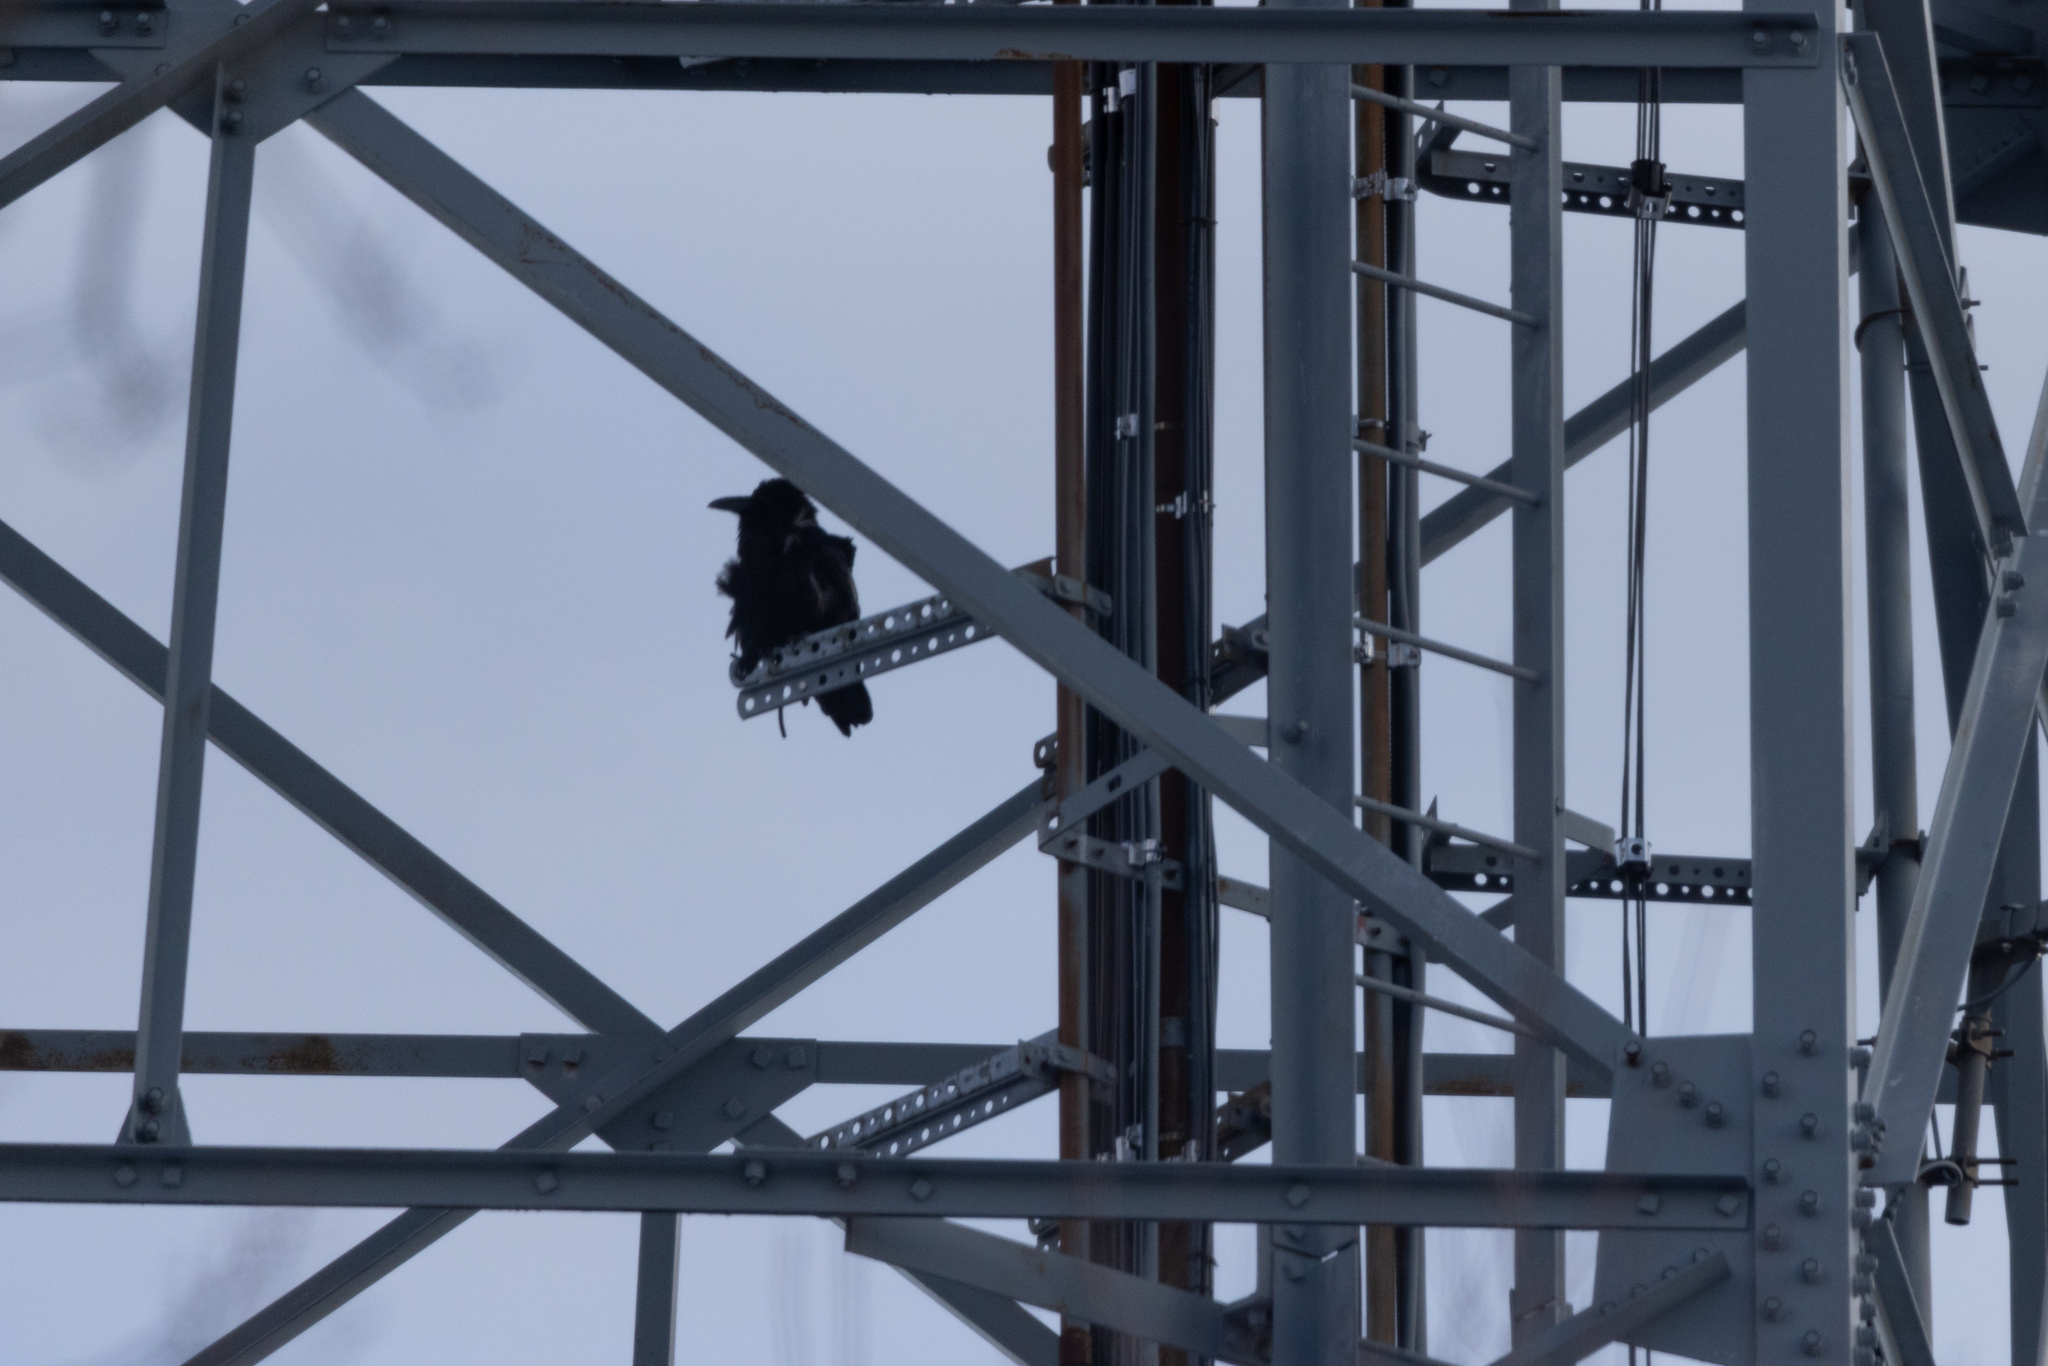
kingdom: Animalia
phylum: Chordata
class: Aves
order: Passeriformes
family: Corvidae
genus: Corvus
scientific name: Corvus corax
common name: Common raven
